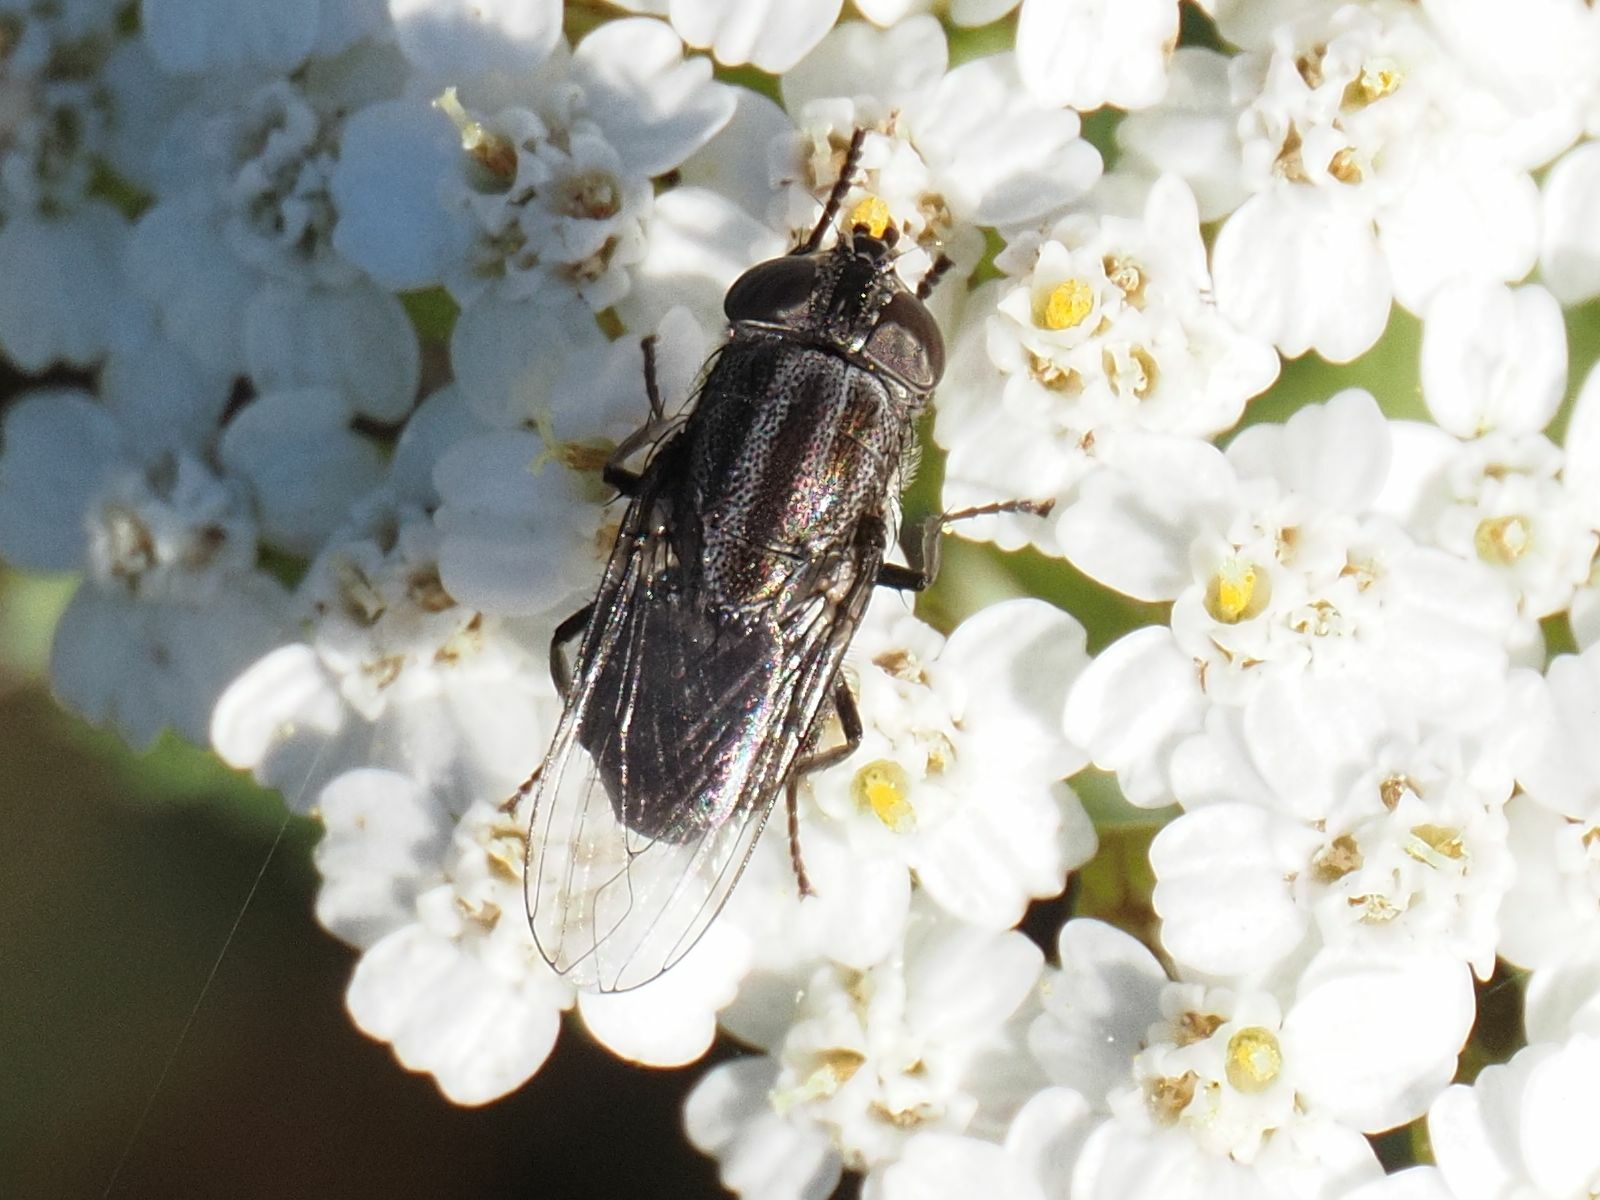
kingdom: Animalia
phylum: Arthropoda
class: Insecta
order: Diptera
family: Calliphoridae
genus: Stomorhina
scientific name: Stomorhina lunata
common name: Locust blowfly
